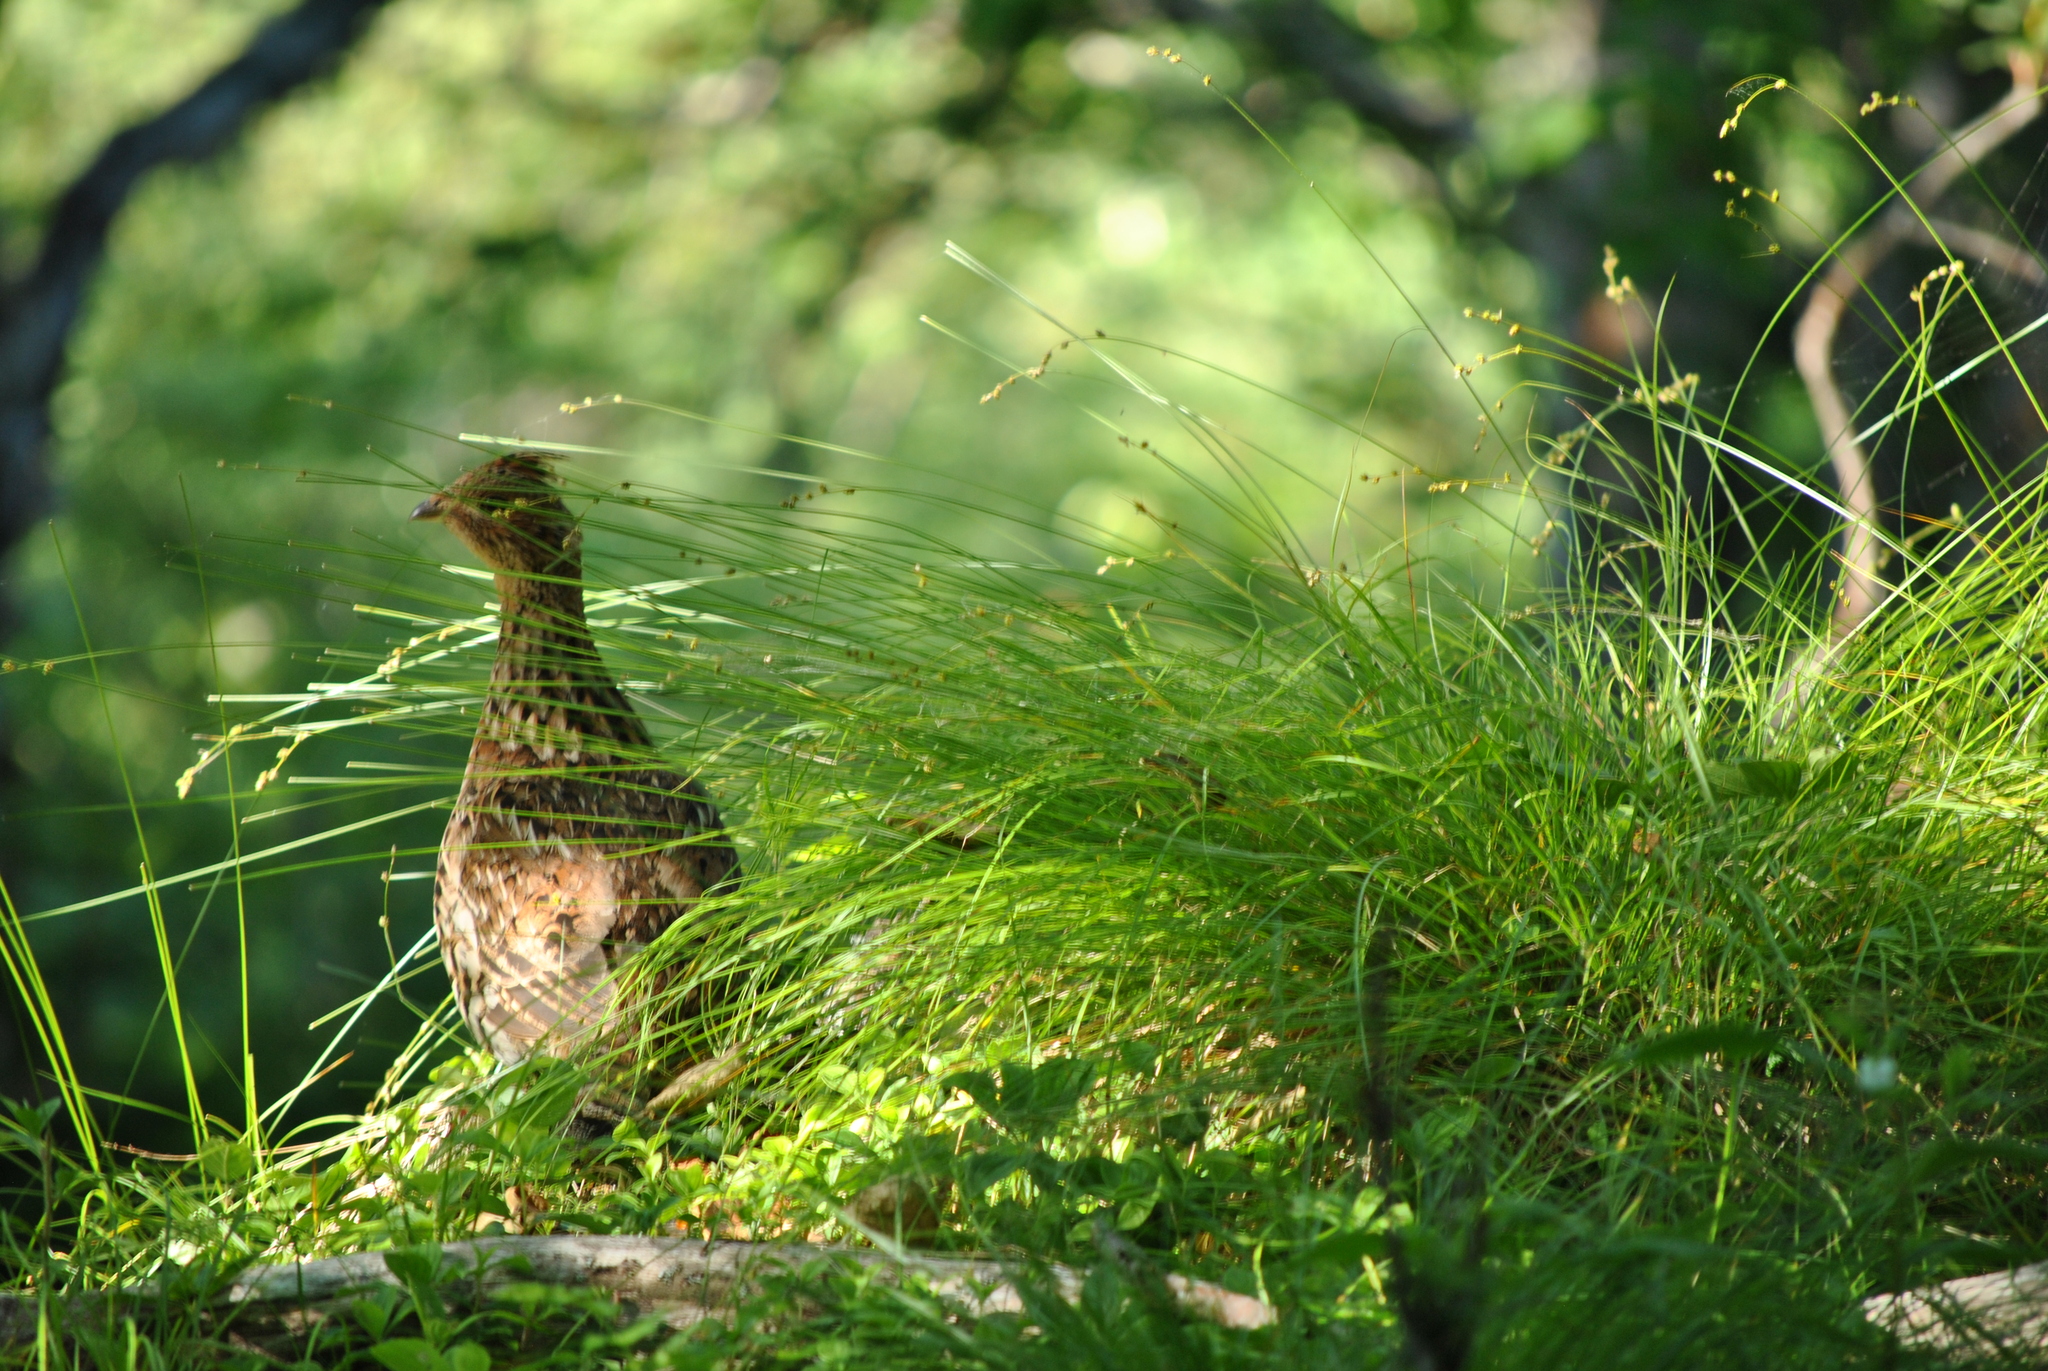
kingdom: Animalia
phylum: Chordata
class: Aves
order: Galliformes
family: Phasianidae
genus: Bonasa
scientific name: Bonasa umbellus
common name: Ruffed grouse
